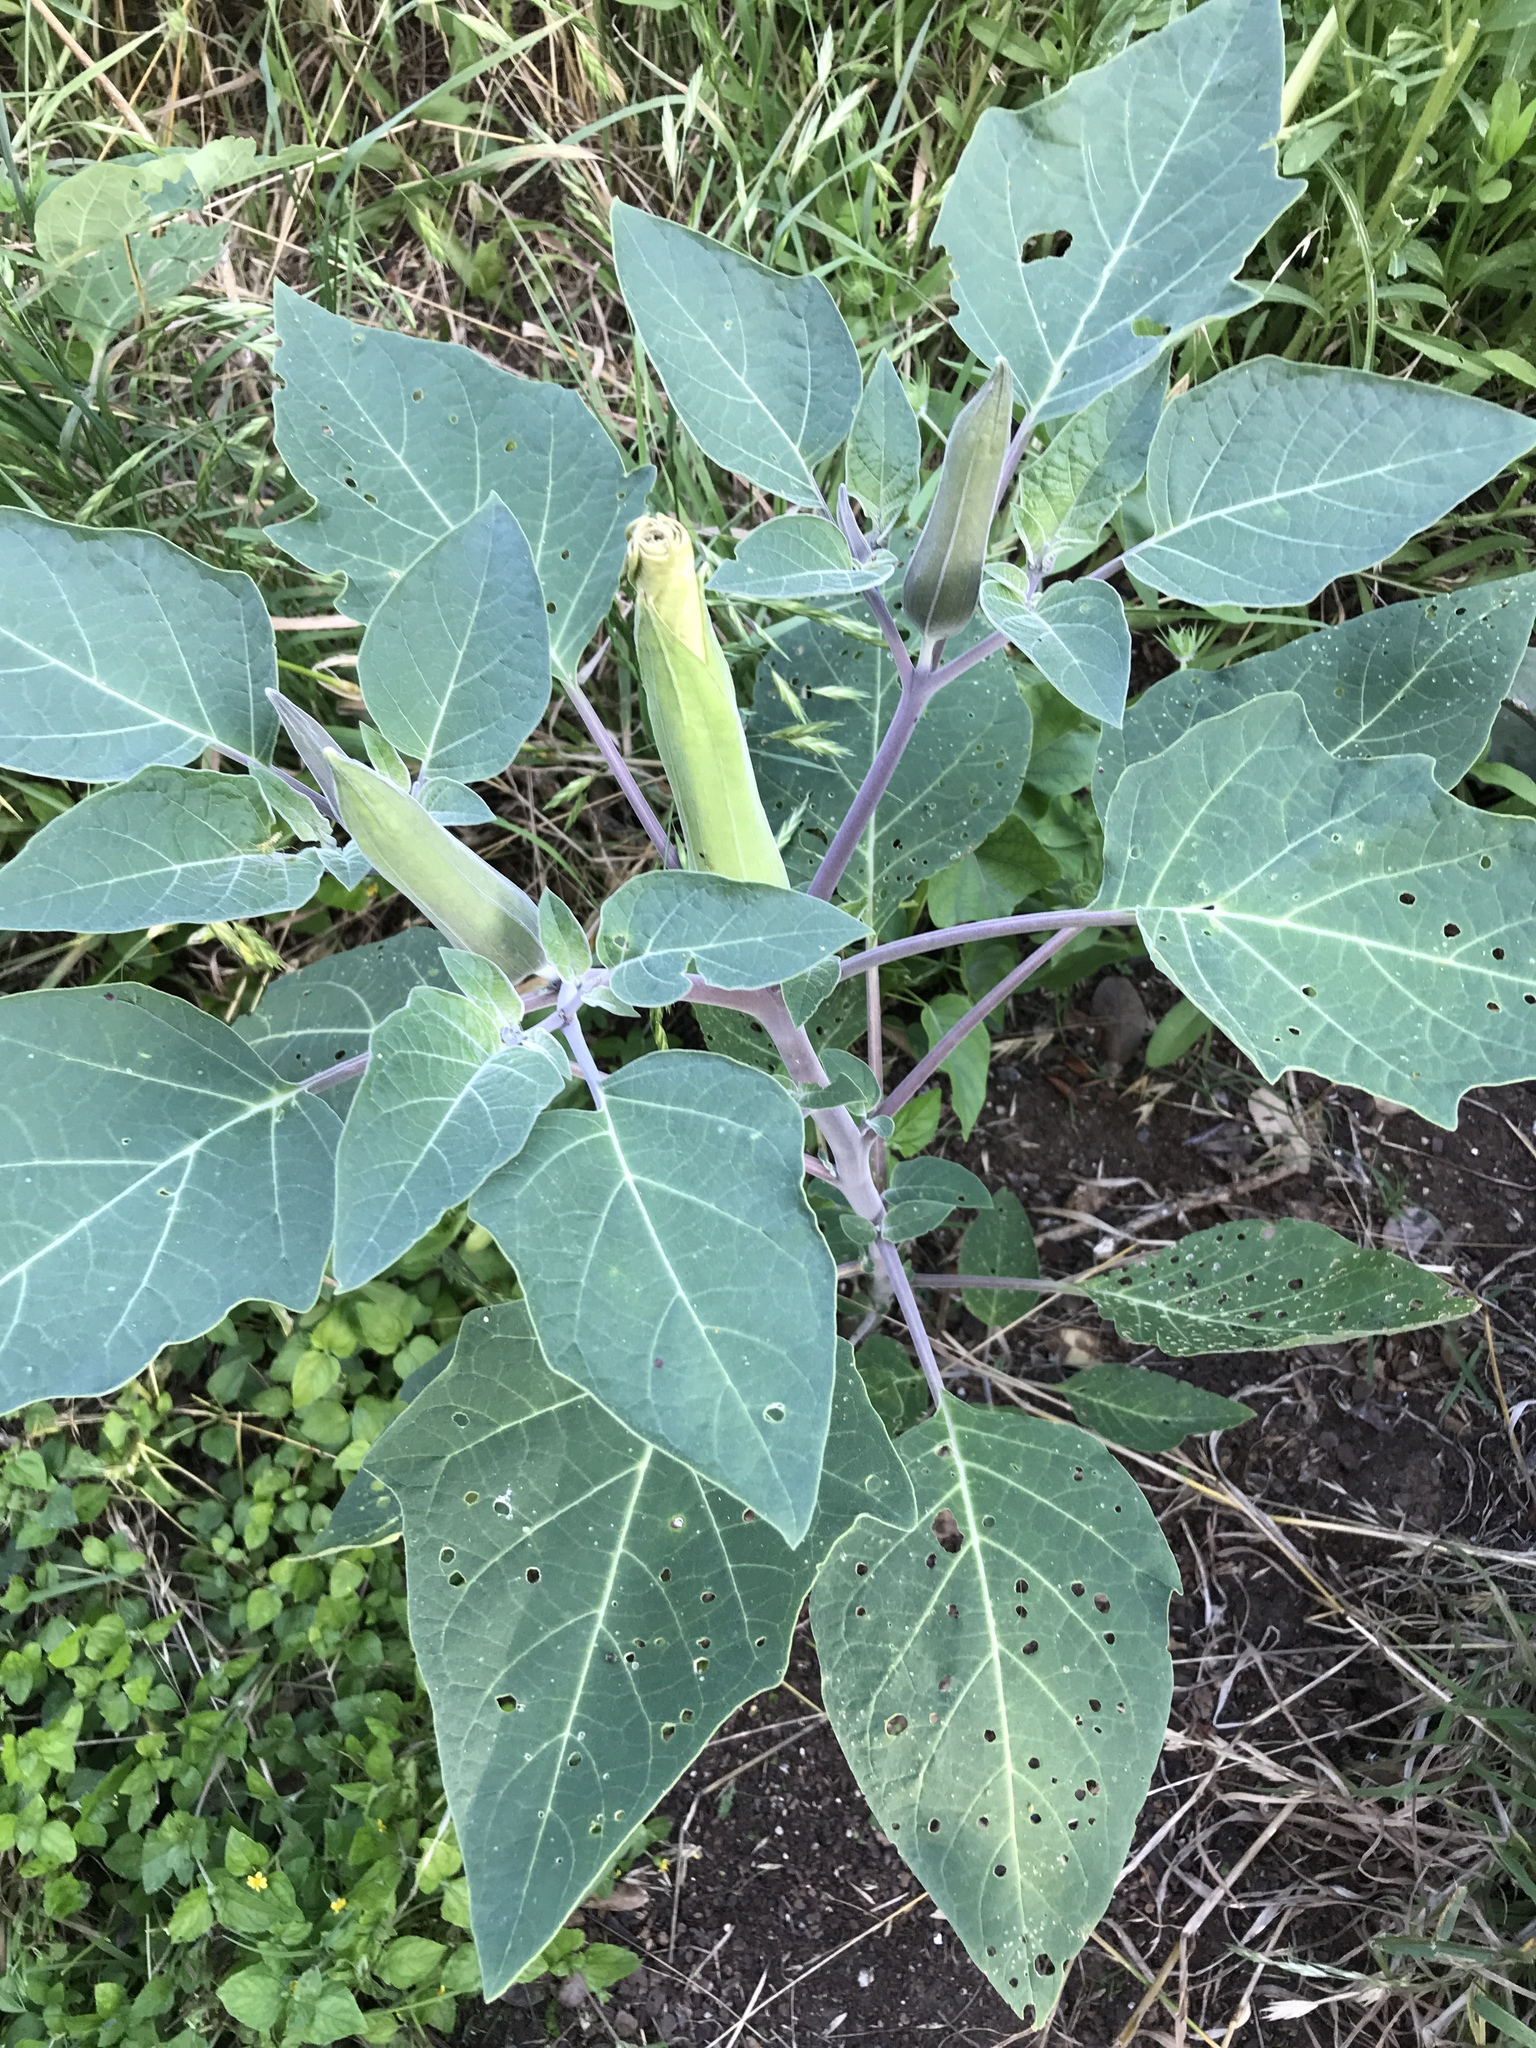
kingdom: Plantae
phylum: Tracheophyta
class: Magnoliopsida
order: Solanales
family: Solanaceae
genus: Datura
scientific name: Datura wrightii
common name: Sacred thorn-apple
